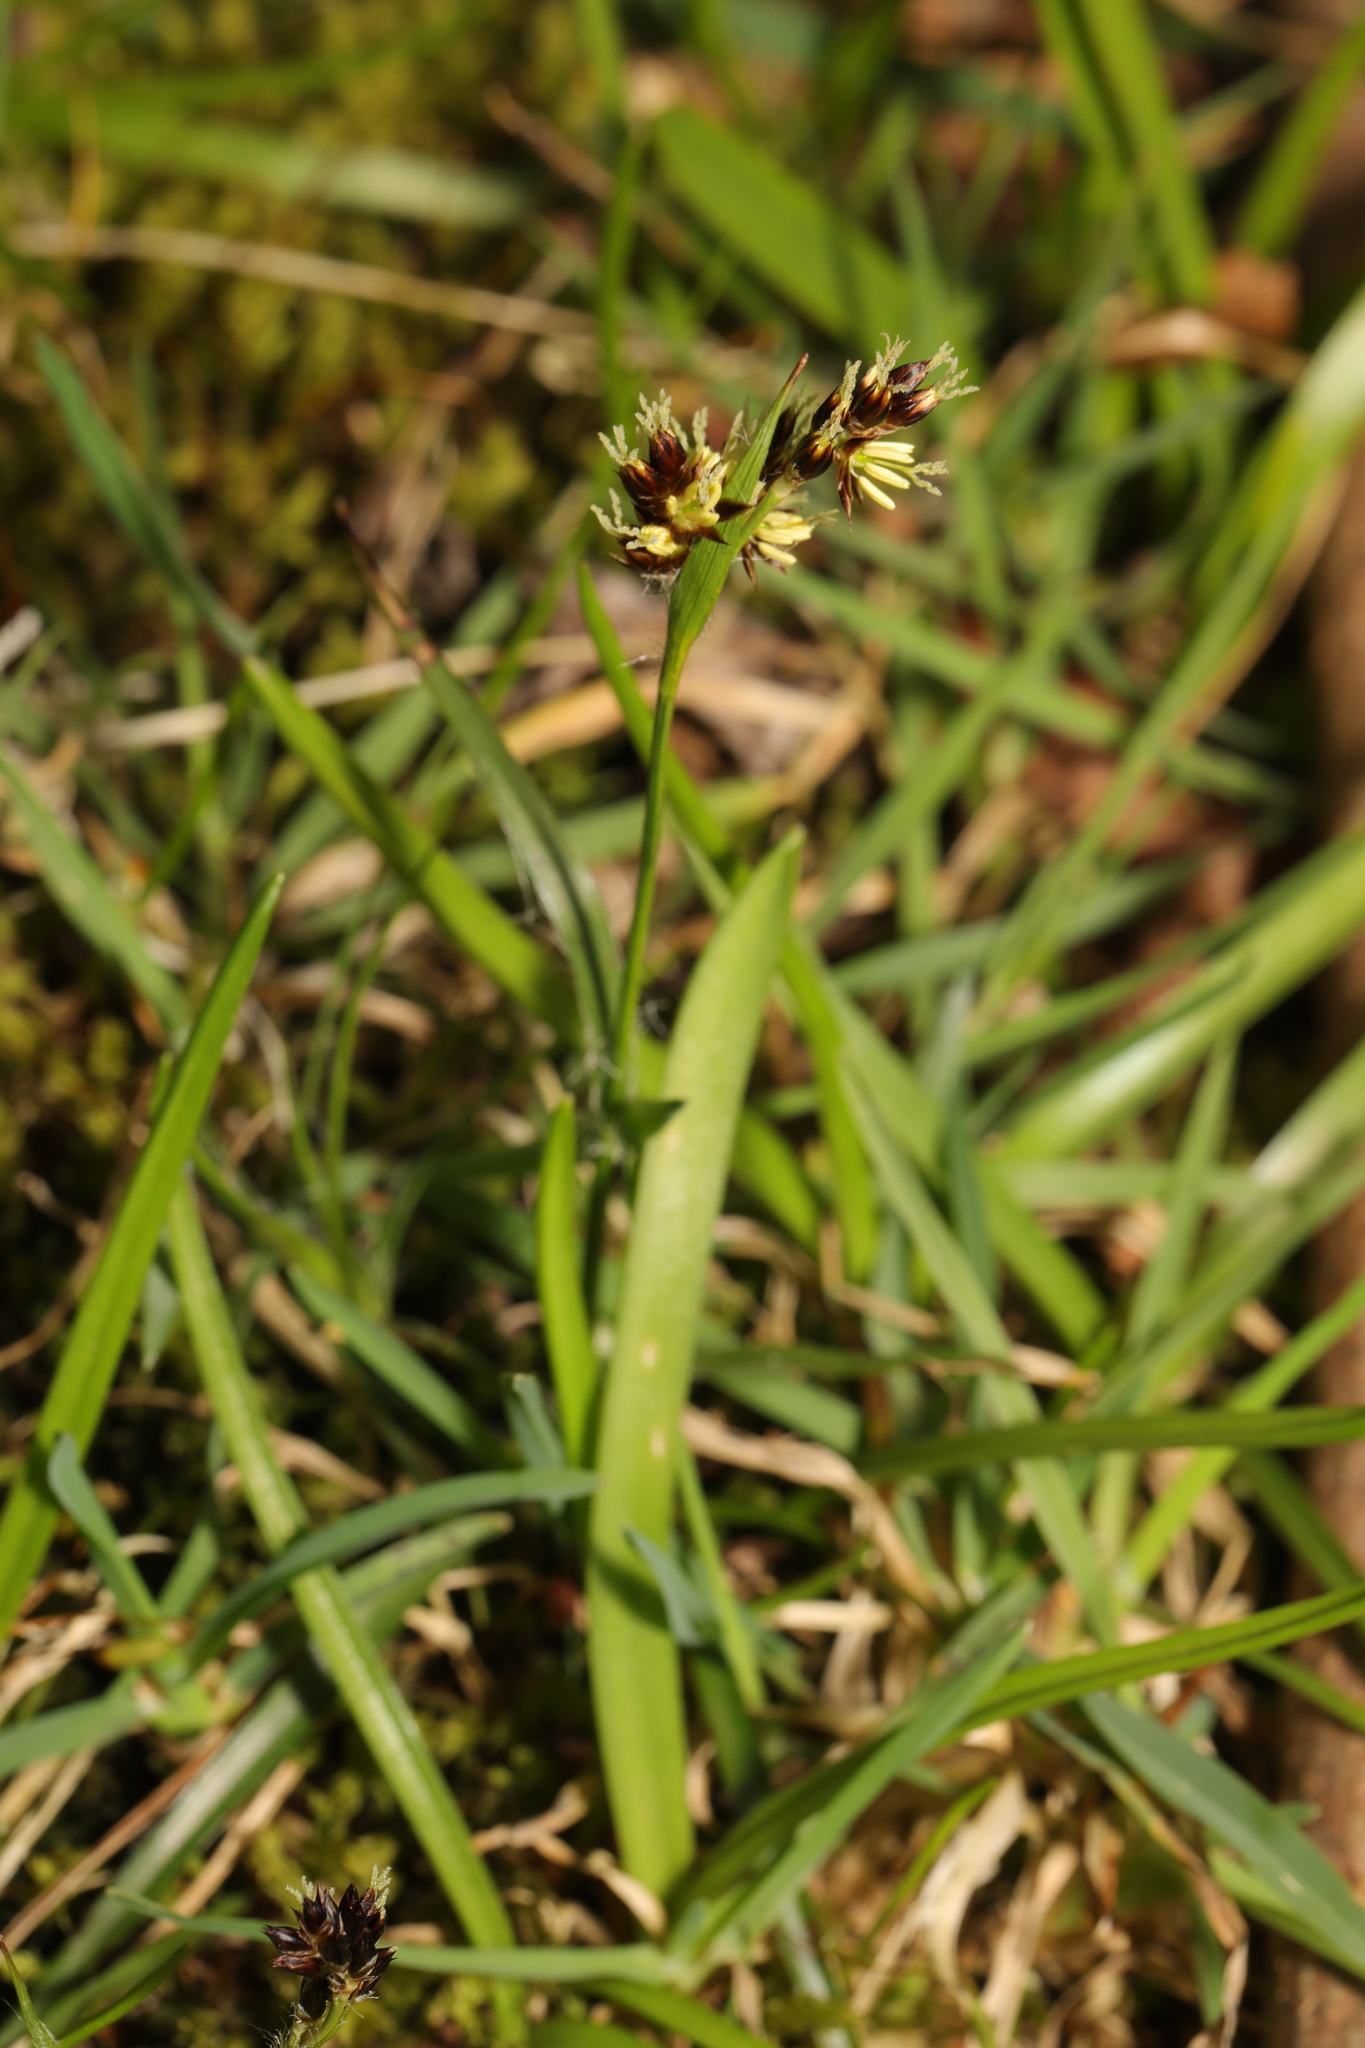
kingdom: Plantae
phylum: Tracheophyta
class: Liliopsida
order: Poales
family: Juncaceae
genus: Luzula
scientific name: Luzula campestris
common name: Field wood-rush
